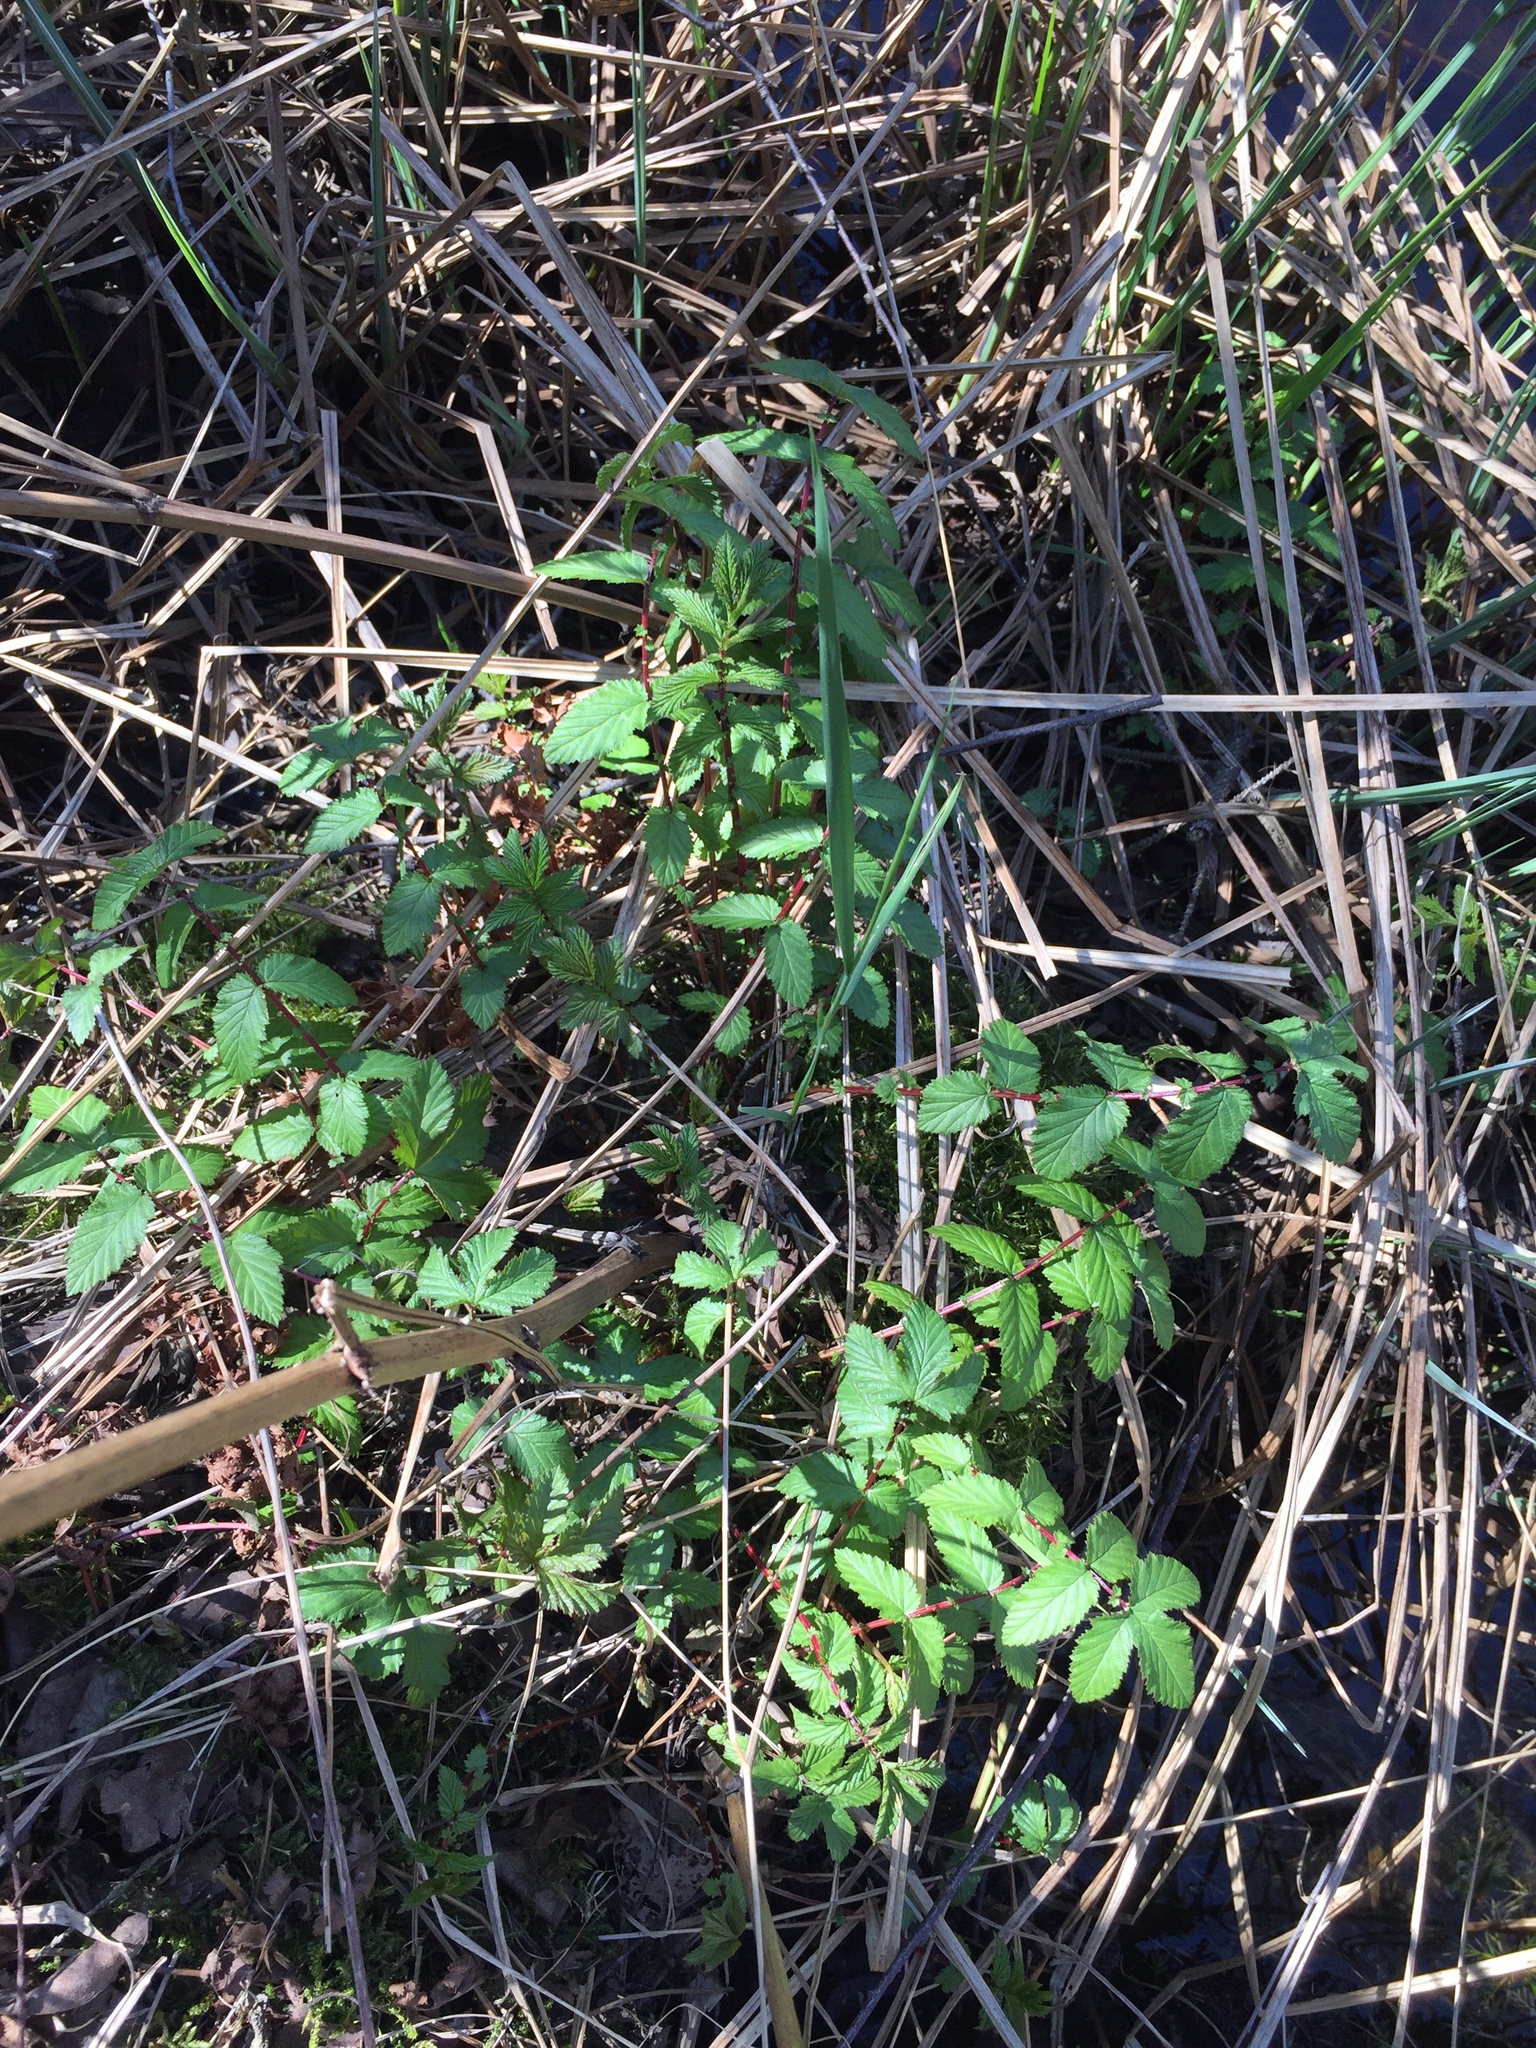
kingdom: Plantae
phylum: Tracheophyta
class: Magnoliopsida
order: Rosales
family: Rosaceae
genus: Filipendula
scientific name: Filipendula ulmaria
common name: Meadowsweet
